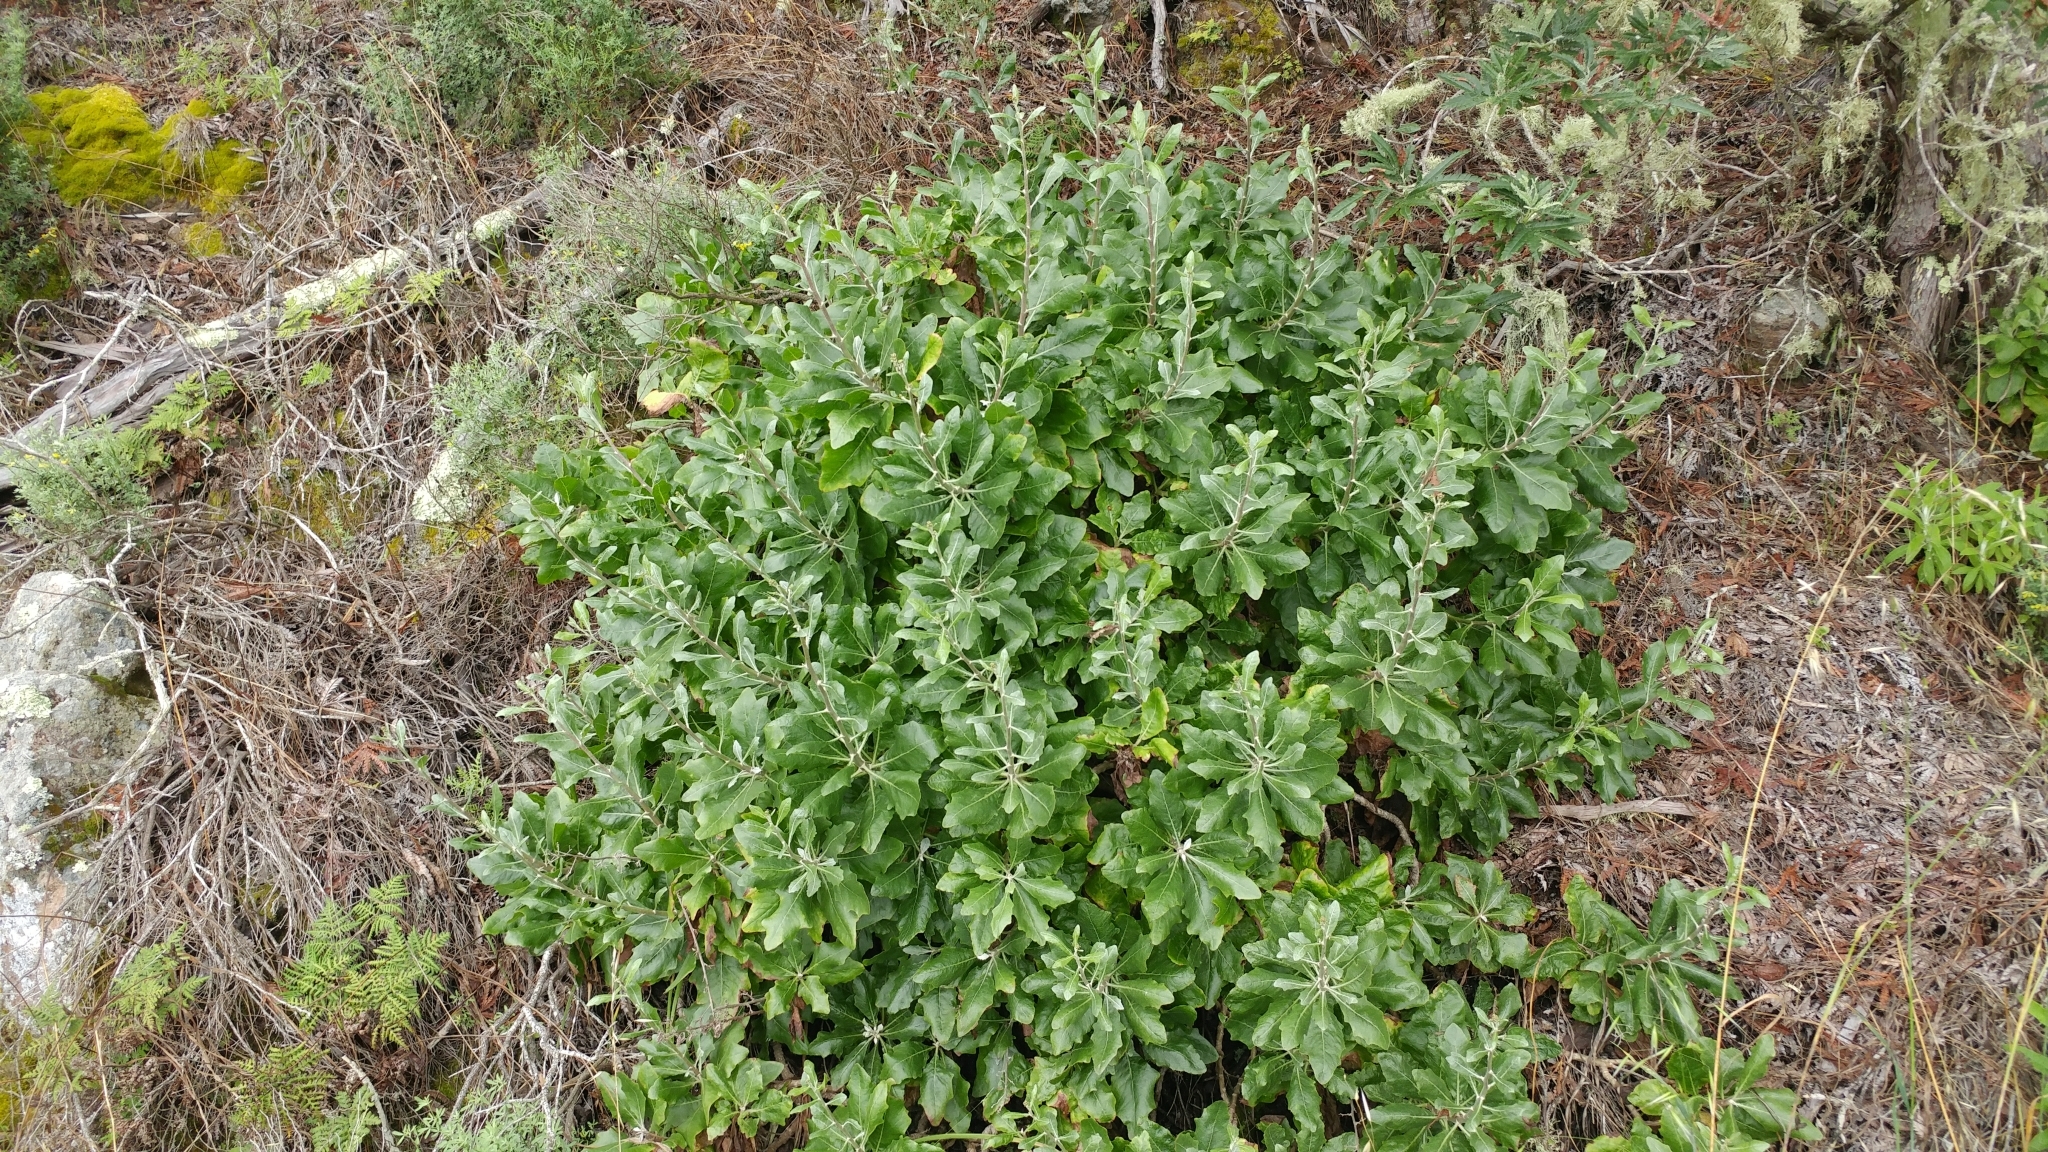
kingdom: Plantae
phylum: Tracheophyta
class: Magnoliopsida
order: Asterales
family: Asteraceae
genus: Munzothamnus
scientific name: Munzothamnus blairii
